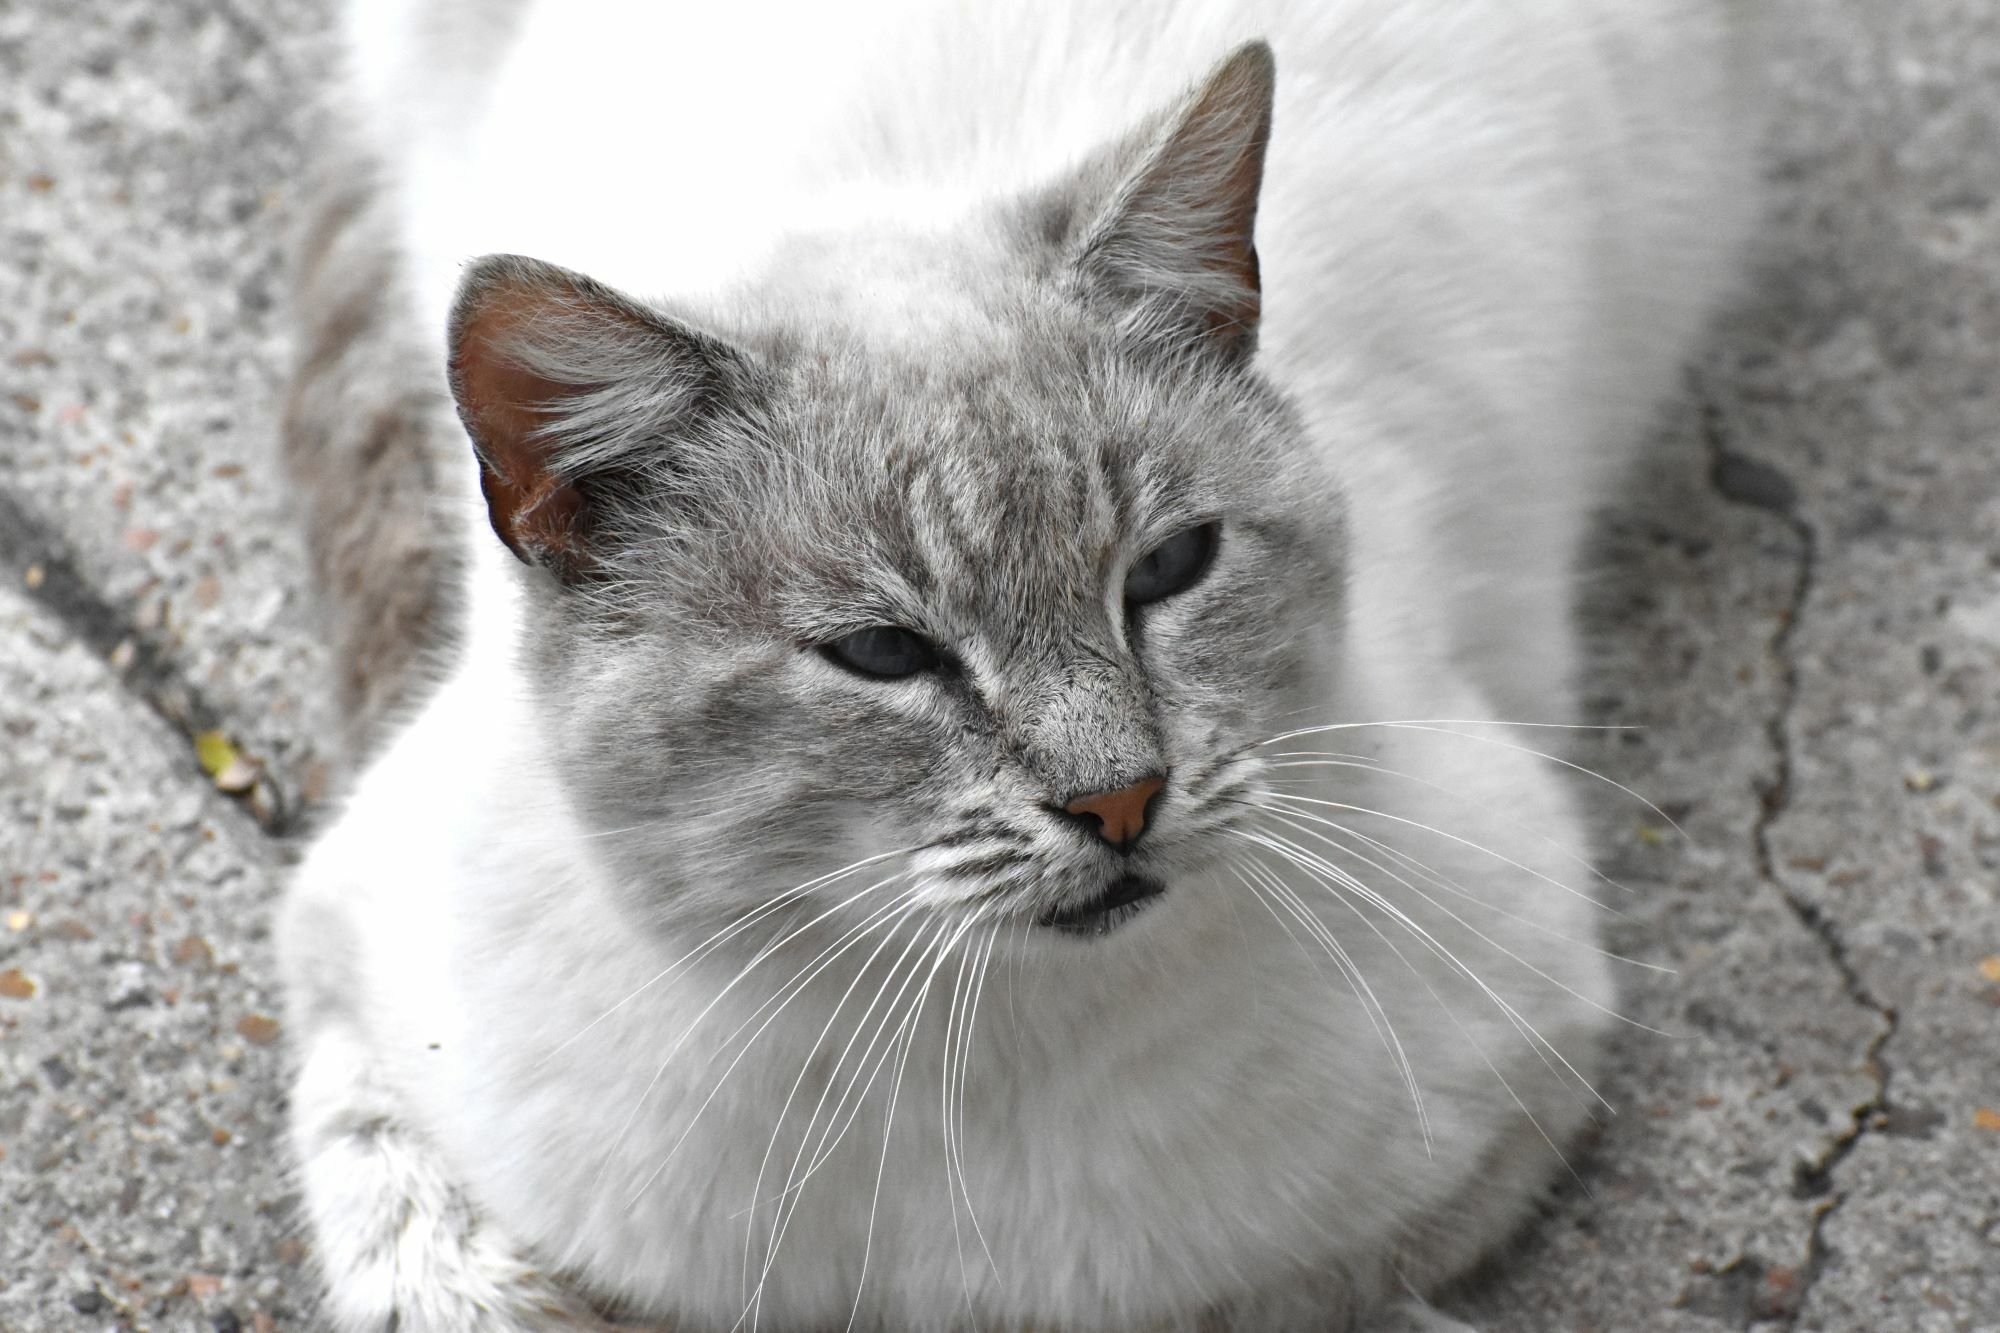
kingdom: Animalia
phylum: Chordata
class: Mammalia
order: Carnivora
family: Felidae
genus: Felis
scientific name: Felis catus
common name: Domestic cat
